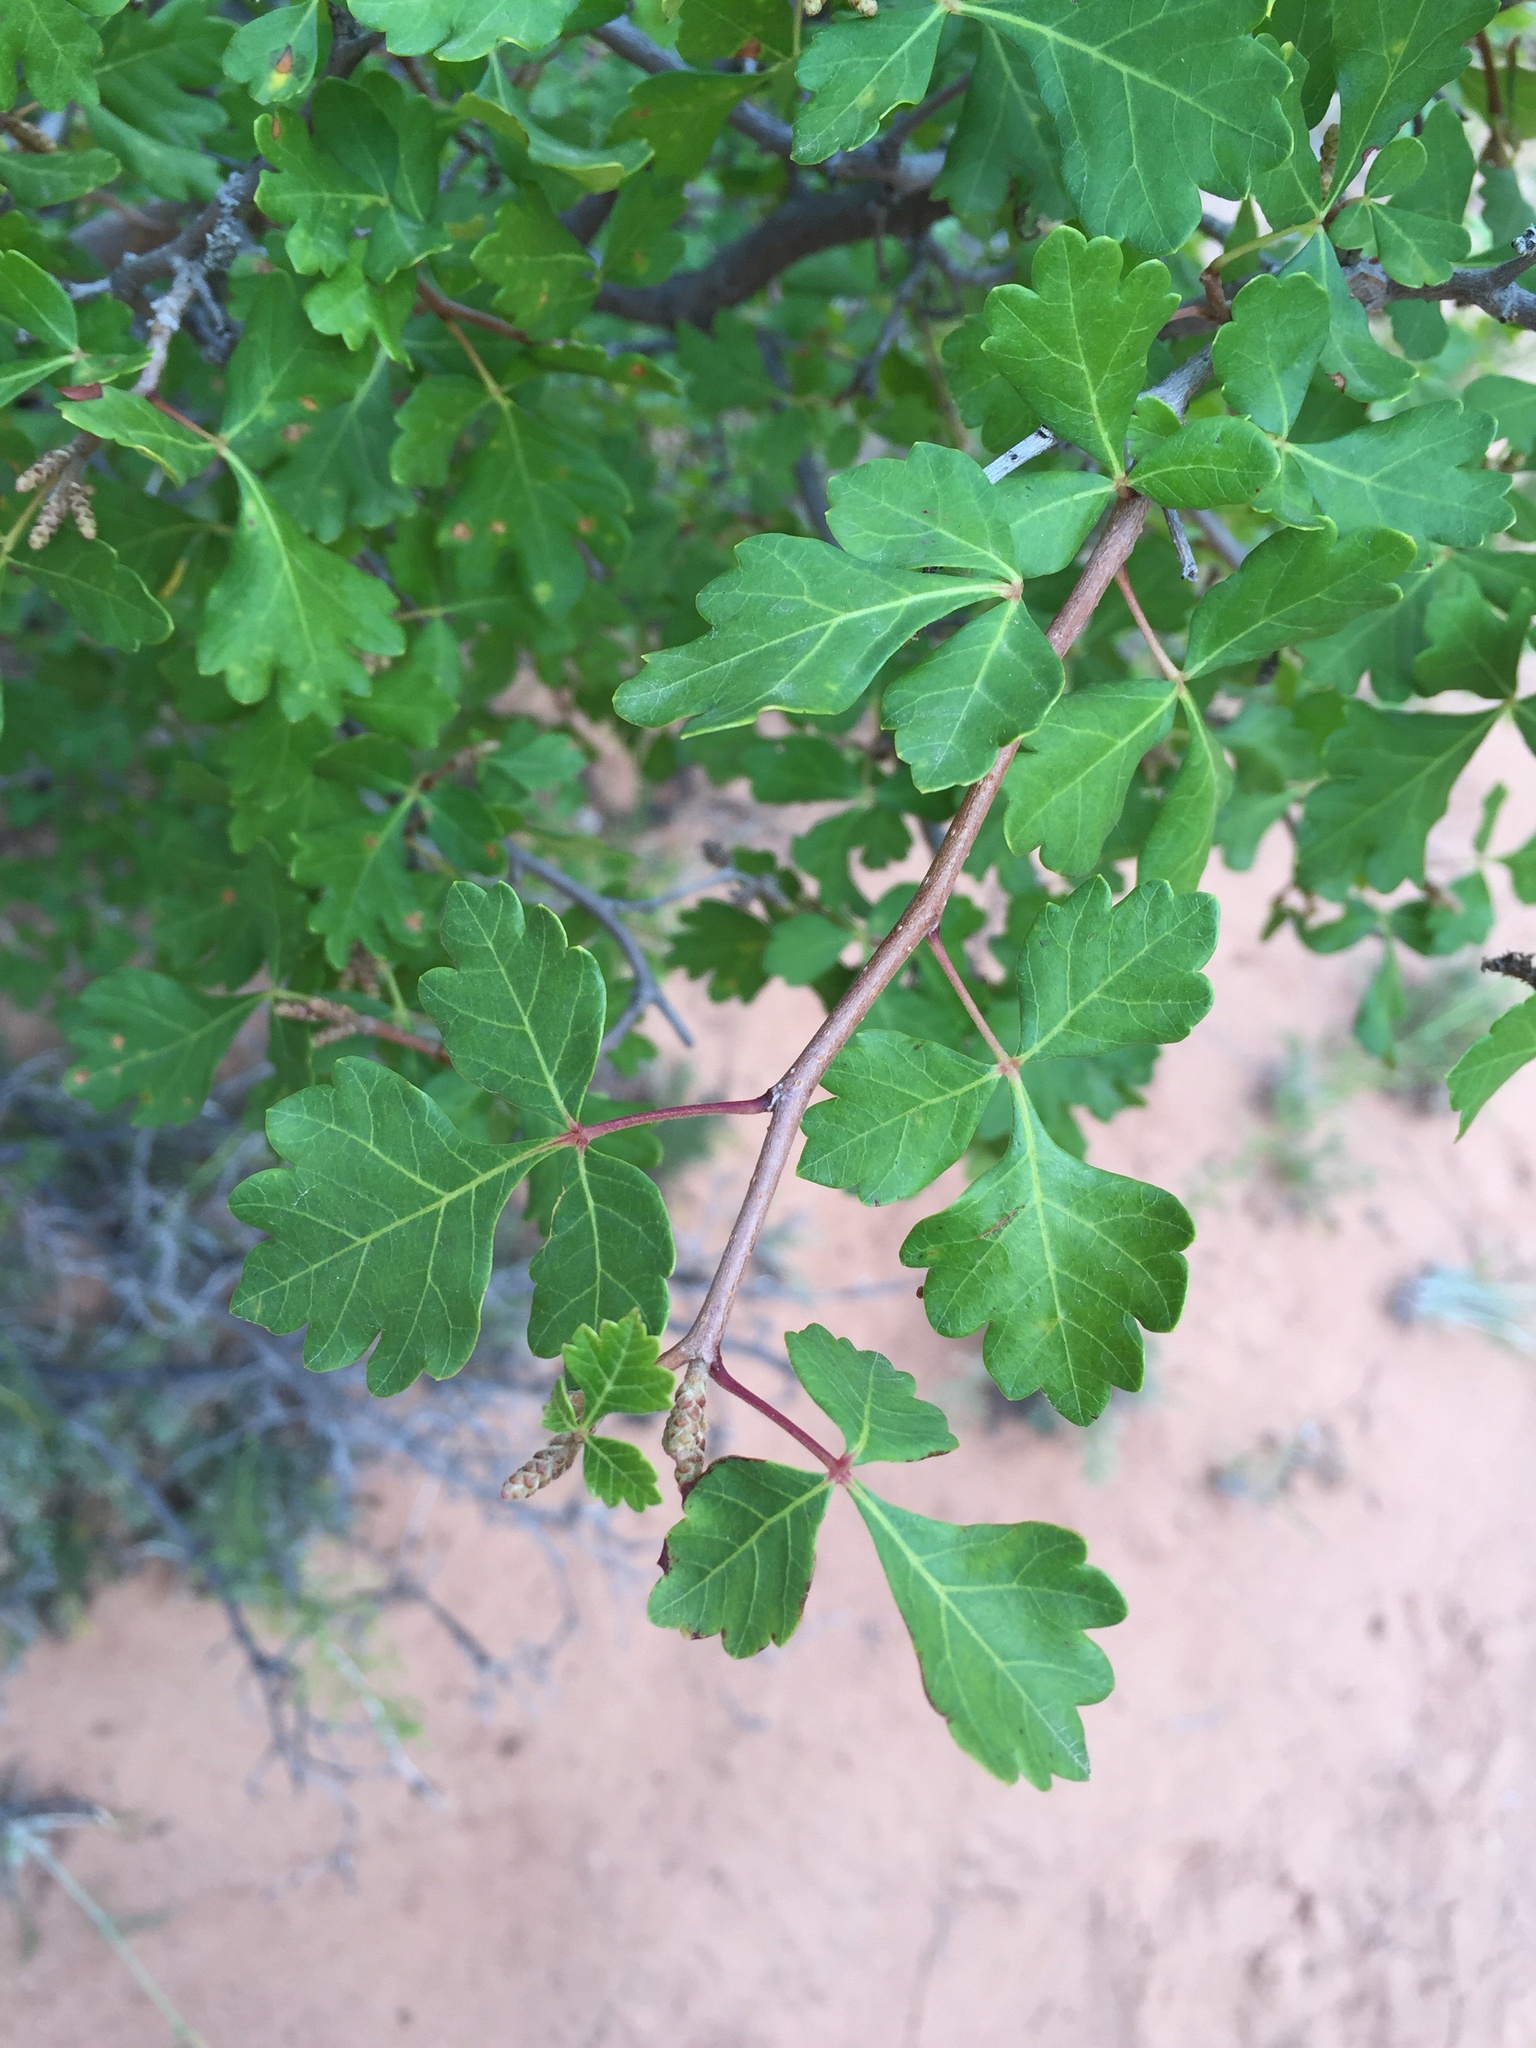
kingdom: Plantae
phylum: Tracheophyta
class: Magnoliopsida
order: Sapindales
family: Anacardiaceae
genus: Rhus
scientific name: Rhus aromatica
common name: Aromatic sumac
